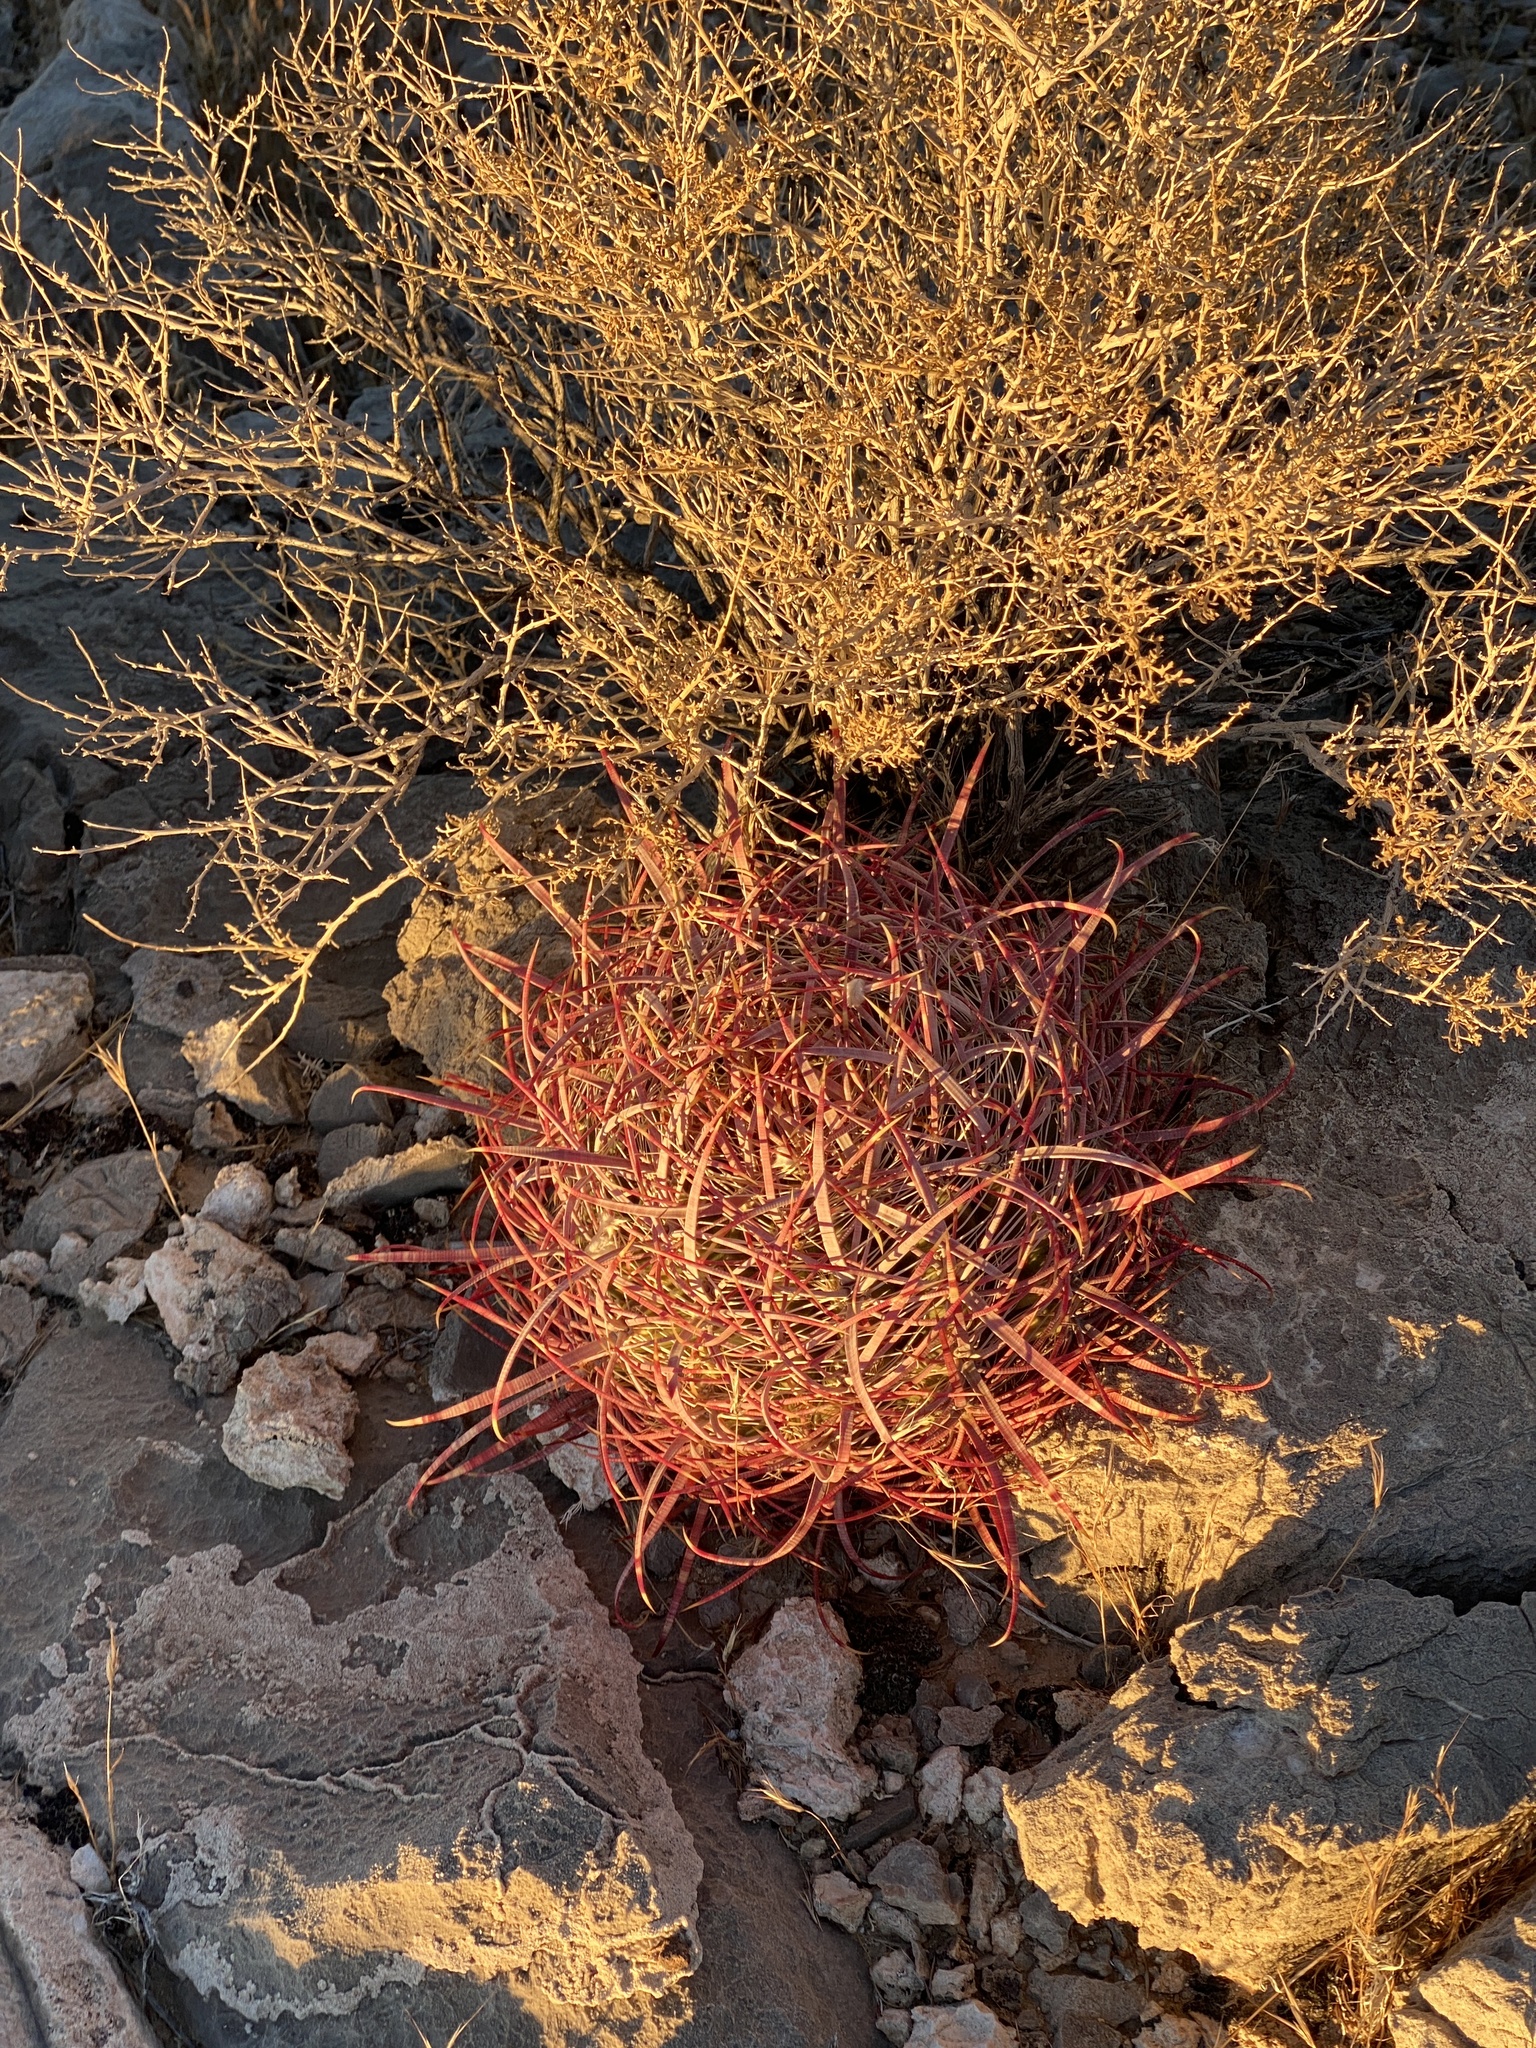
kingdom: Plantae
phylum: Tracheophyta
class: Magnoliopsida
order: Caryophyllales
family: Cactaceae
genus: Ferocactus
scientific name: Ferocactus cylindraceus
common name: California barrel cactus
